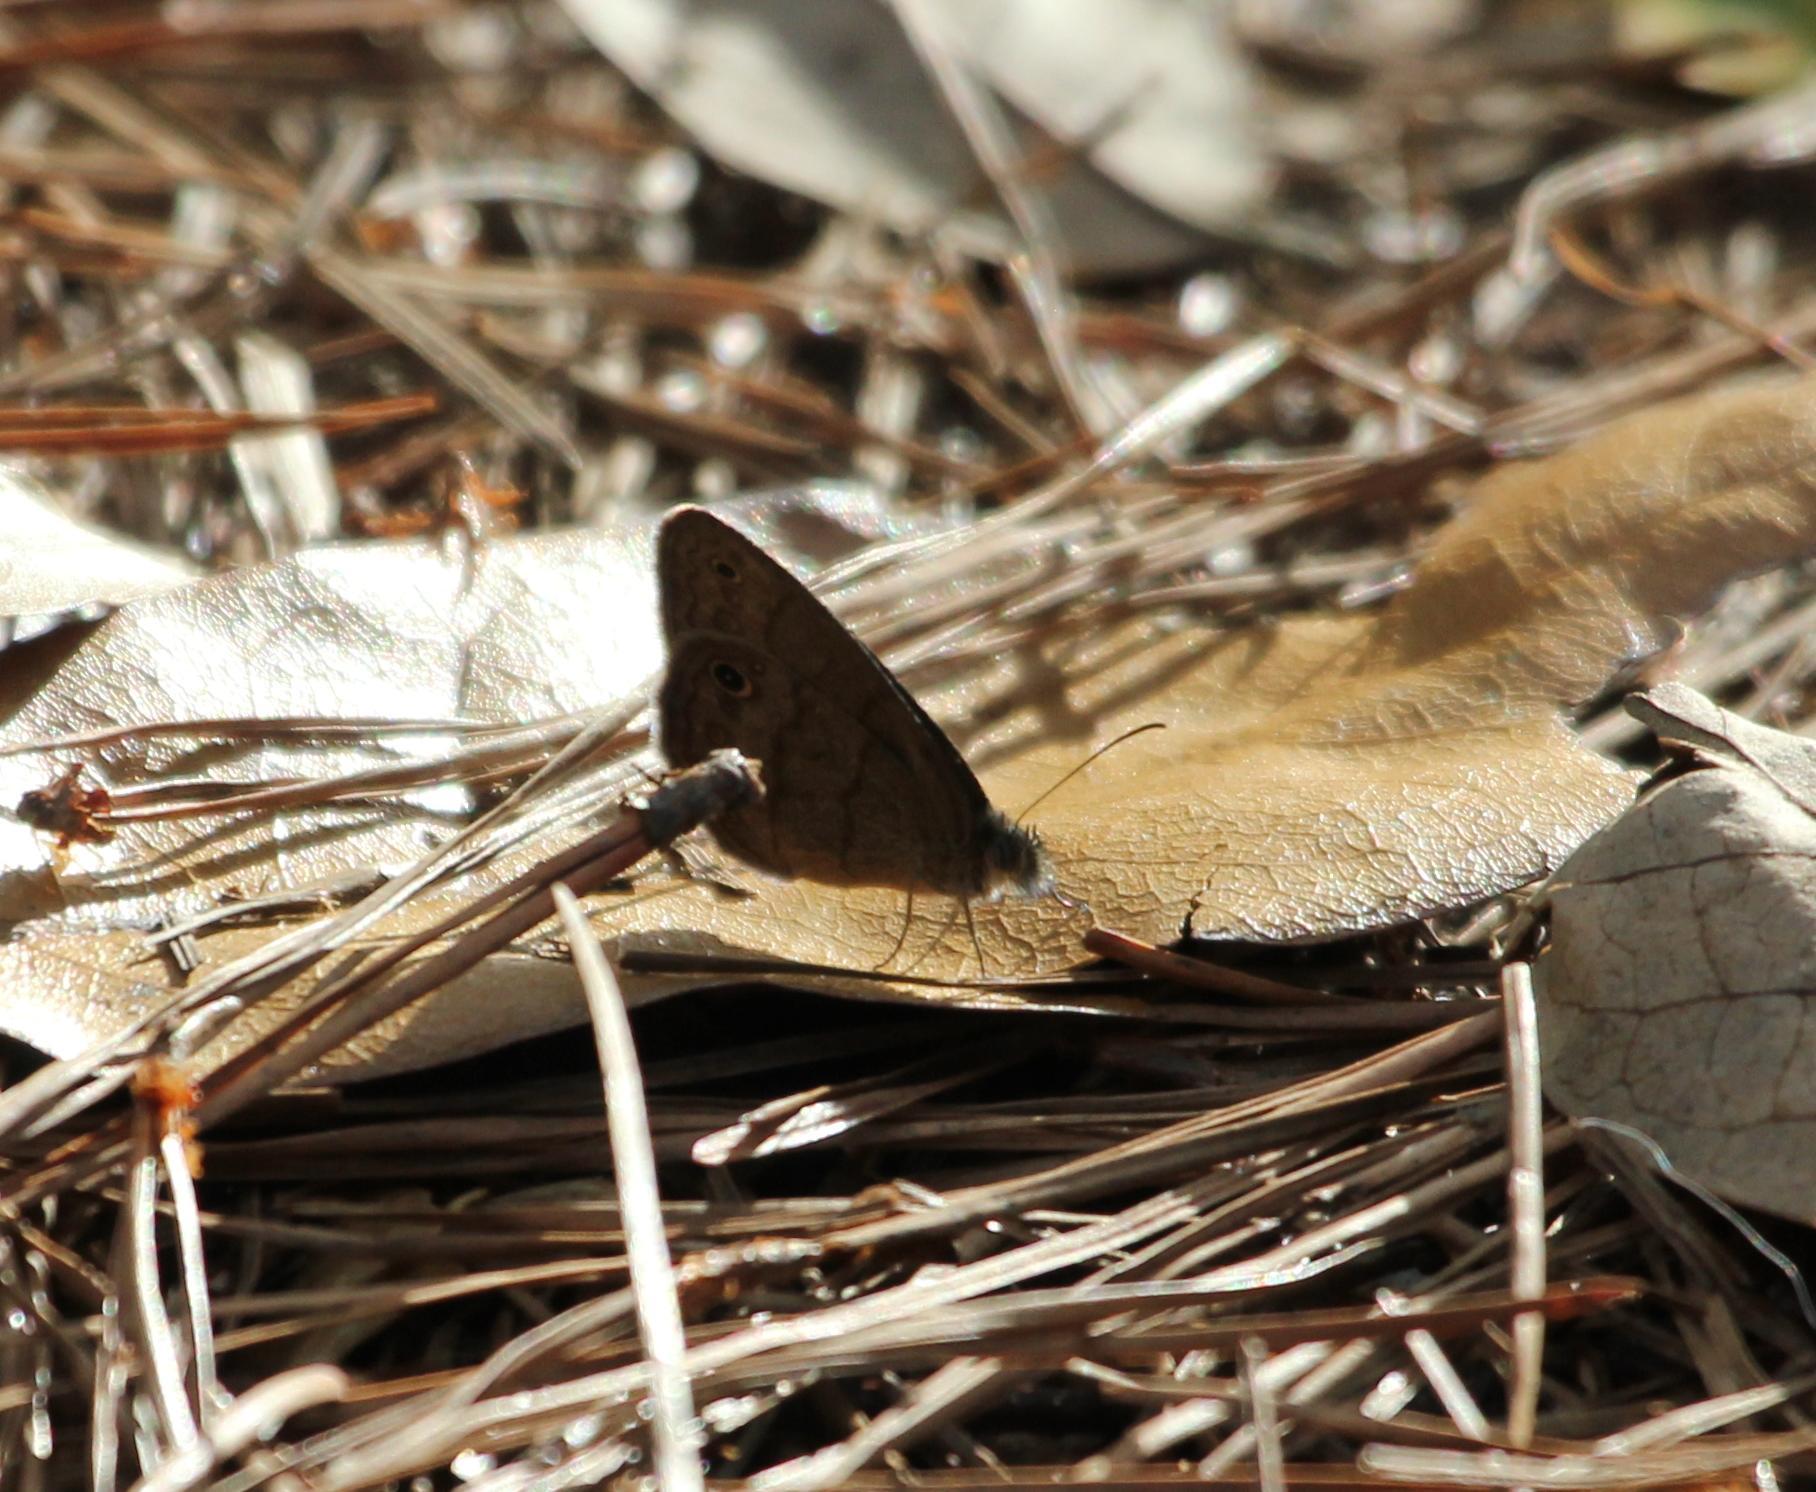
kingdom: Animalia
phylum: Arthropoda
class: Insecta
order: Lepidoptera
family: Nymphalidae
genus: Hermeuptychia
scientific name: Hermeuptychia hermes
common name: Hermes satyr
